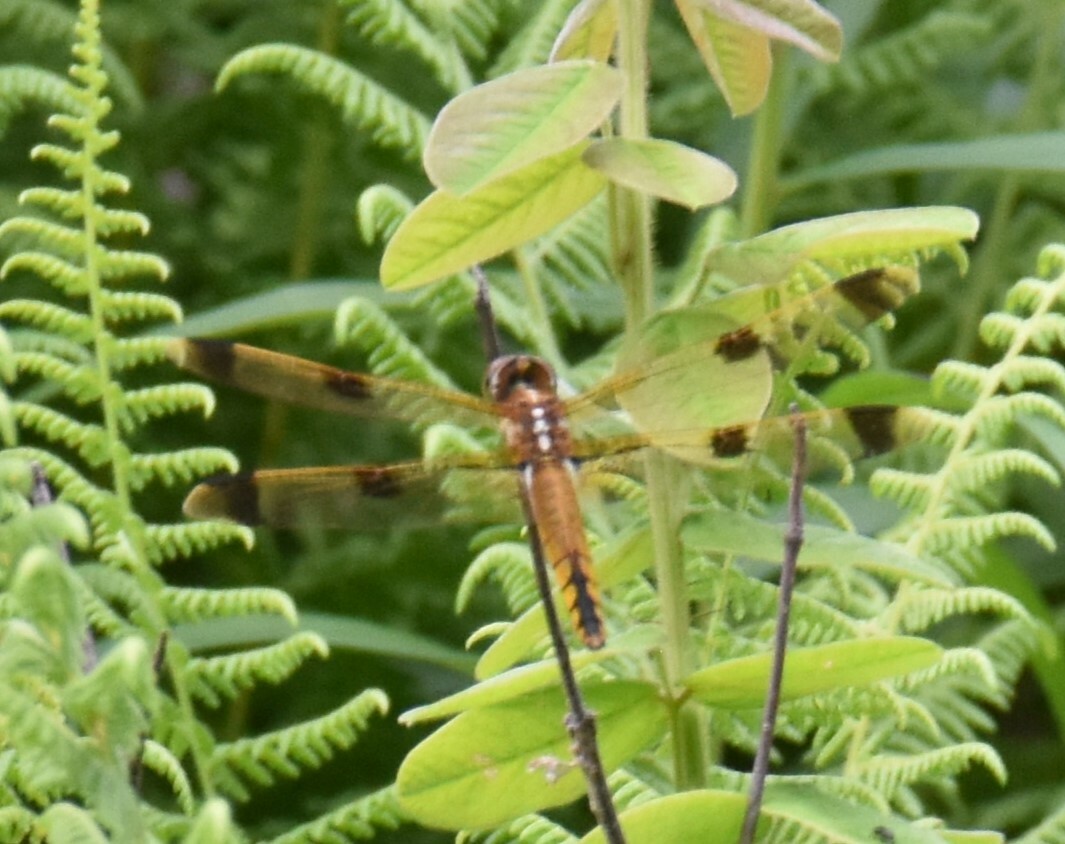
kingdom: Animalia
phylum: Arthropoda
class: Insecta
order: Odonata
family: Libellulidae
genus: Libellula
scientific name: Libellula semifasciata
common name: Painted skimmer
